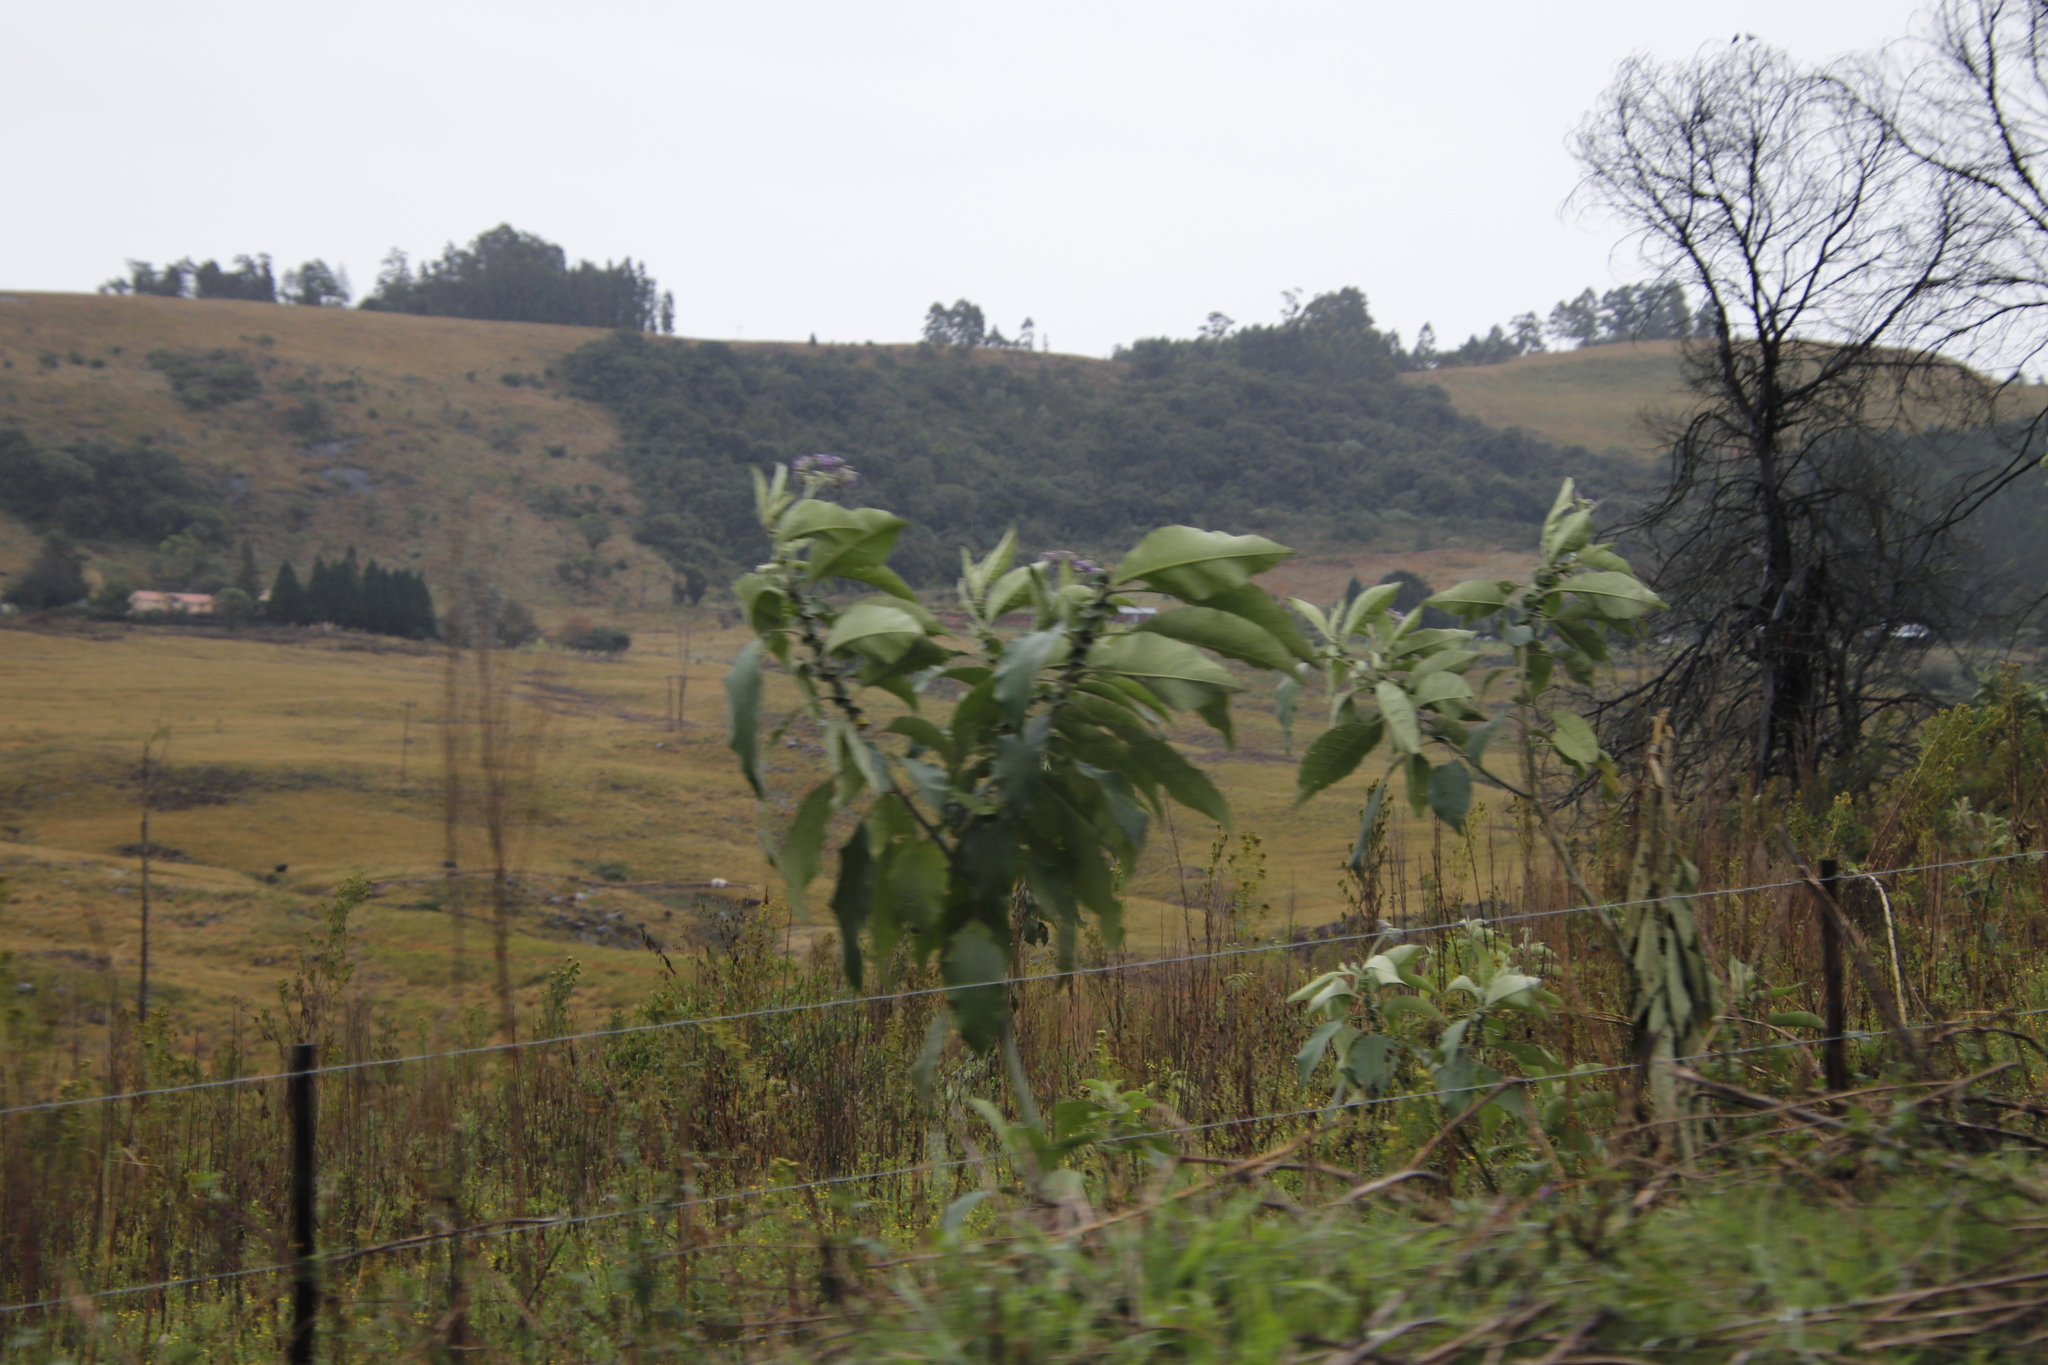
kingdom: Plantae
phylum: Tracheophyta
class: Magnoliopsida
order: Solanales
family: Solanaceae
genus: Solanum
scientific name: Solanum mauritianum
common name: Earleaf nightshade
